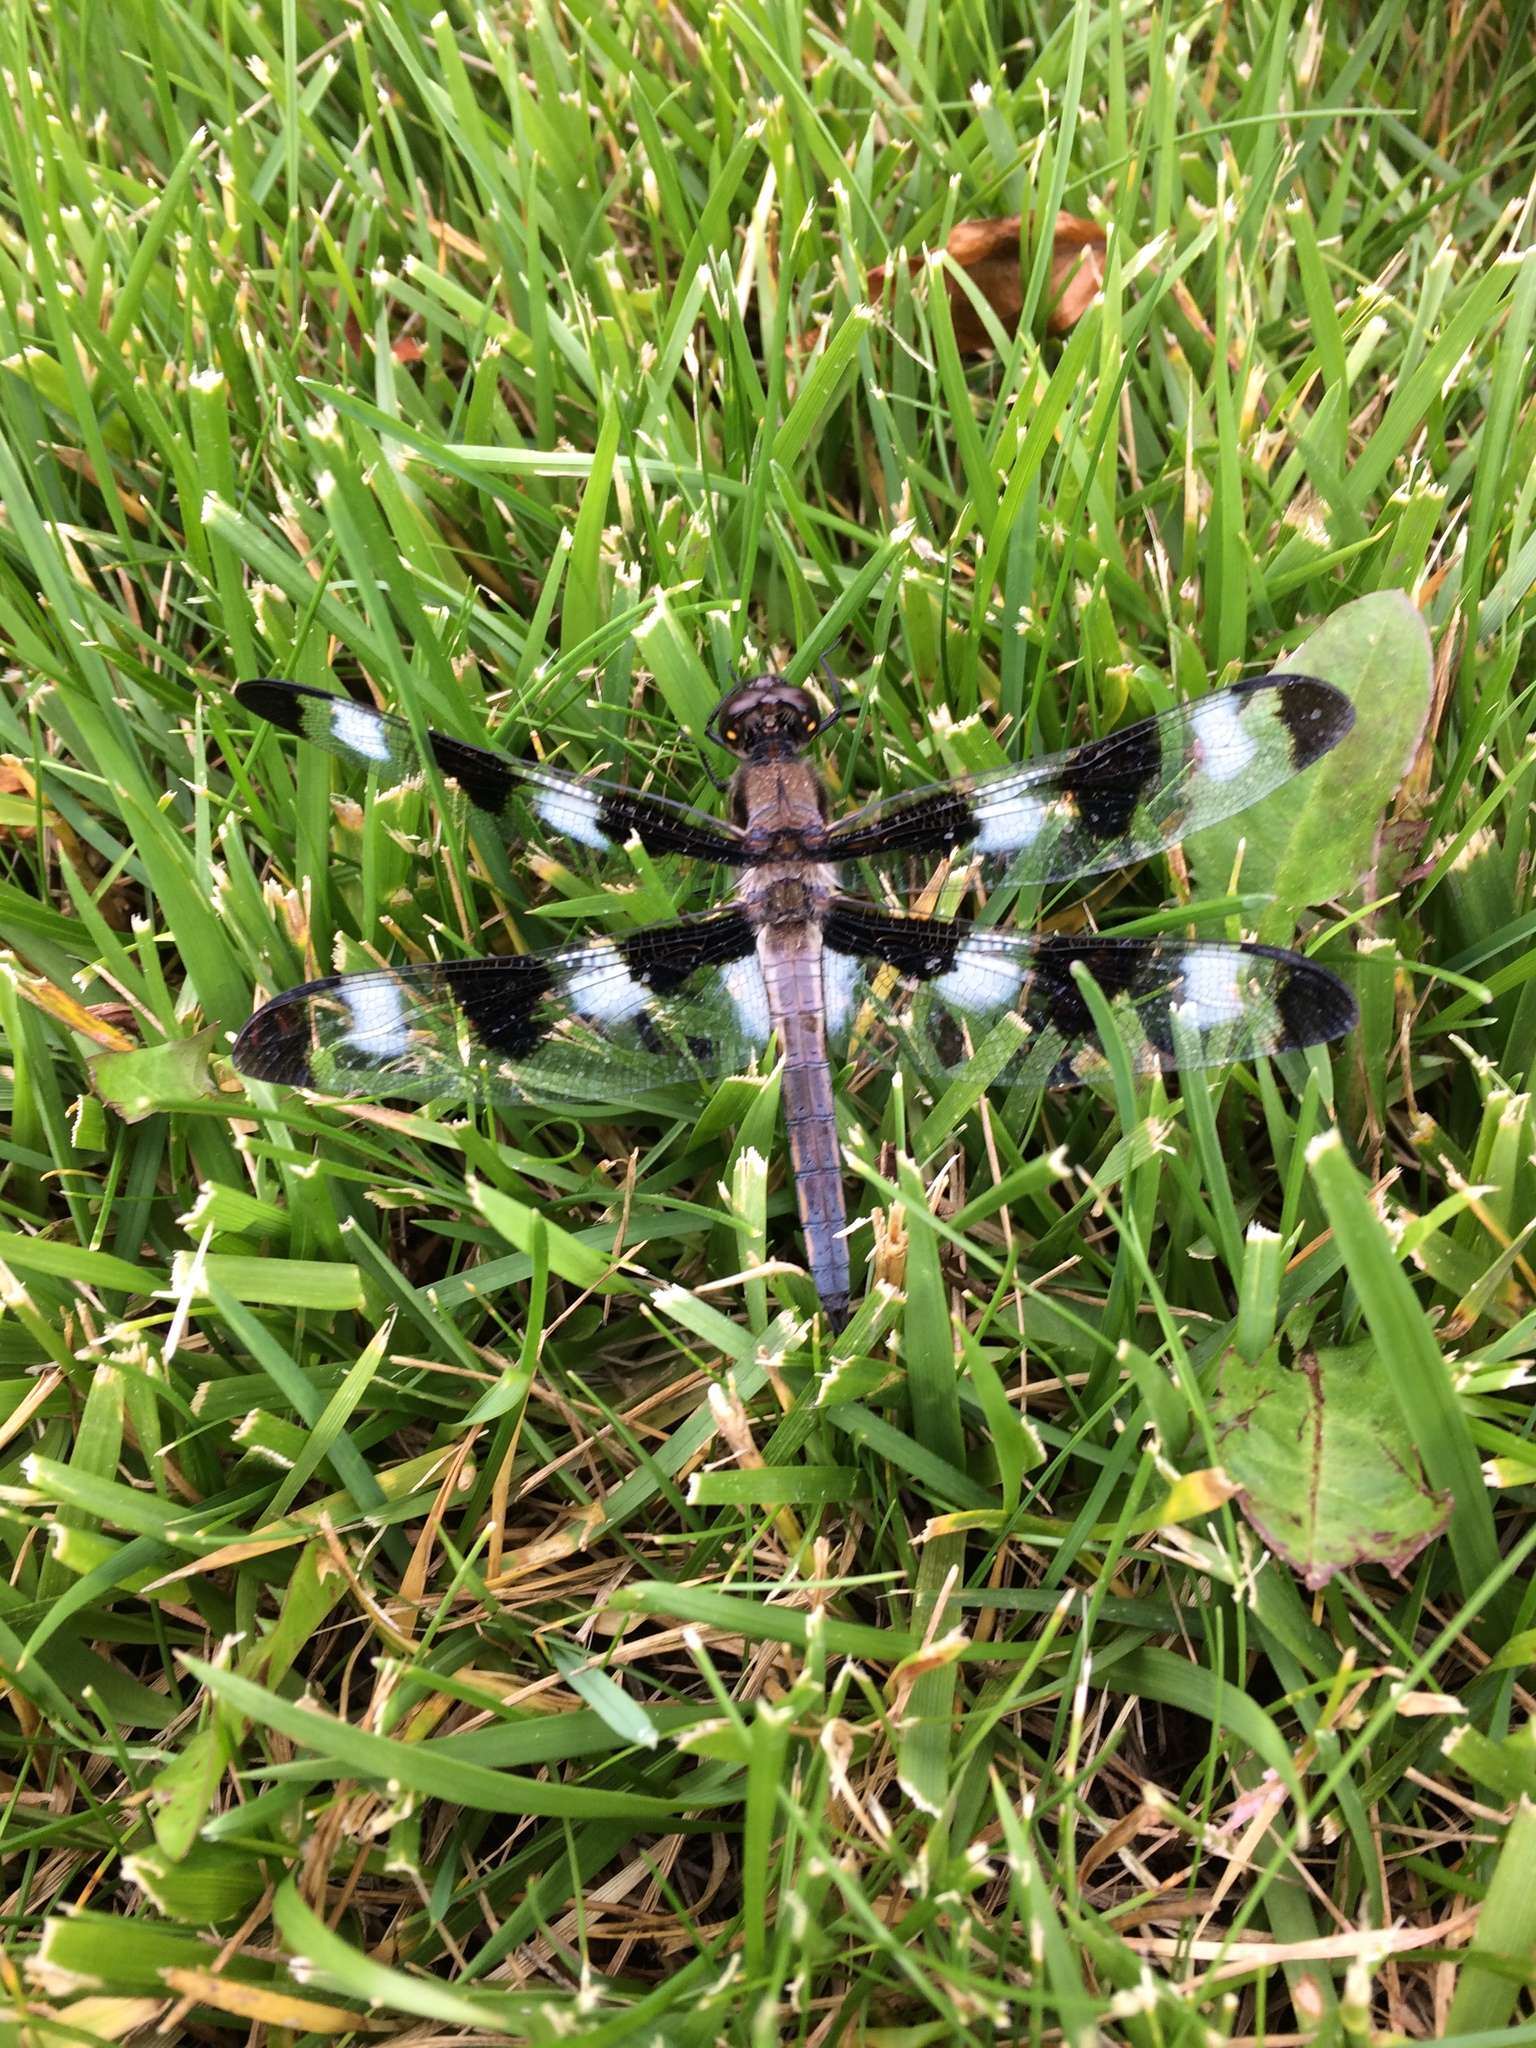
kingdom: Animalia
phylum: Arthropoda
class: Insecta
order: Odonata
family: Libellulidae
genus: Libellula
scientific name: Libellula pulchella
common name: Twelve-spotted skimmer
